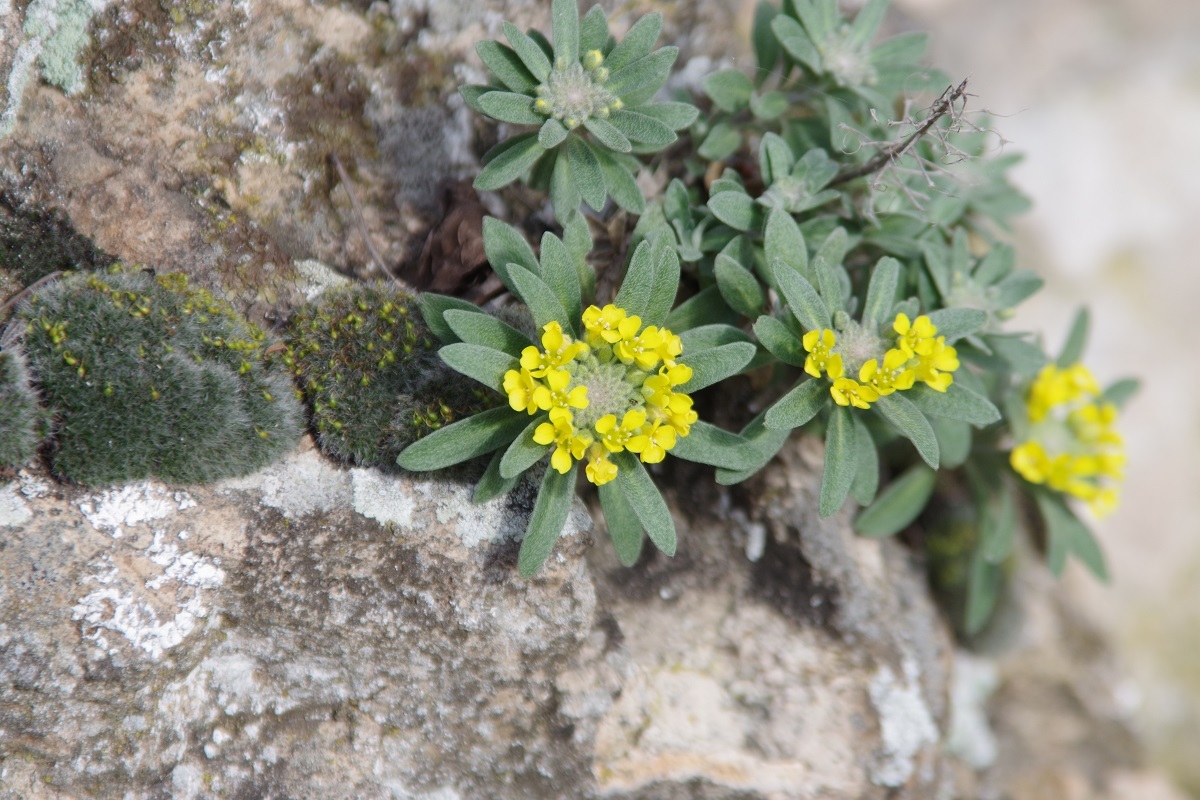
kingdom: Plantae
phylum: Tracheophyta
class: Magnoliopsida
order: Brassicales
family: Brassicaceae
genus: Alyssum
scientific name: Alyssum gmelinii
